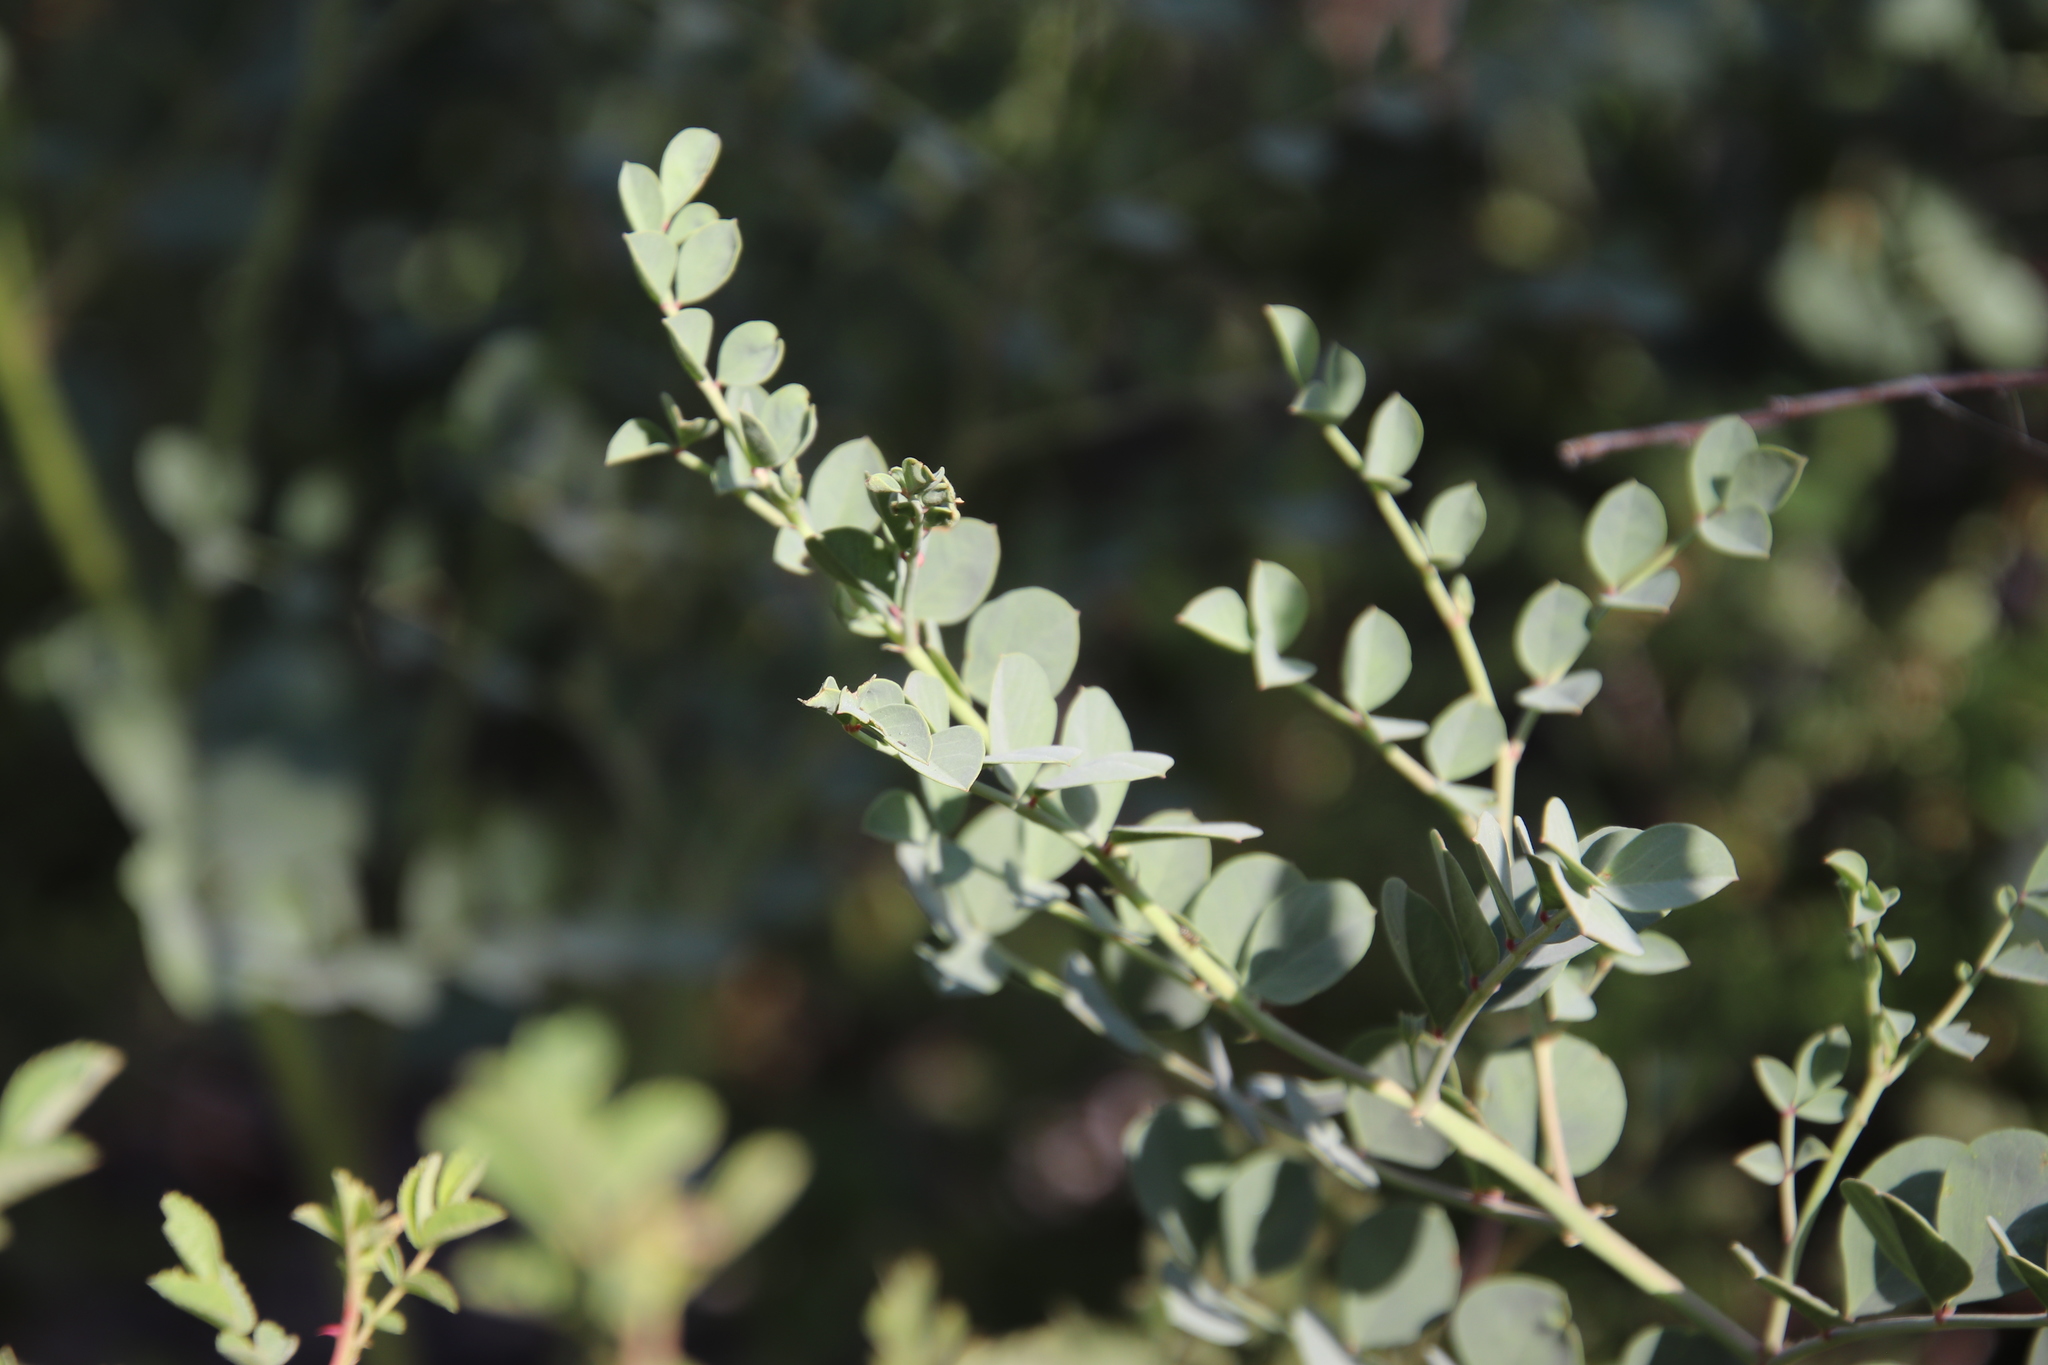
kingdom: Plantae
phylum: Tracheophyta
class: Magnoliopsida
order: Fabales
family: Fabaceae
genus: Hosackia
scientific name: Hosackia crassifolia
